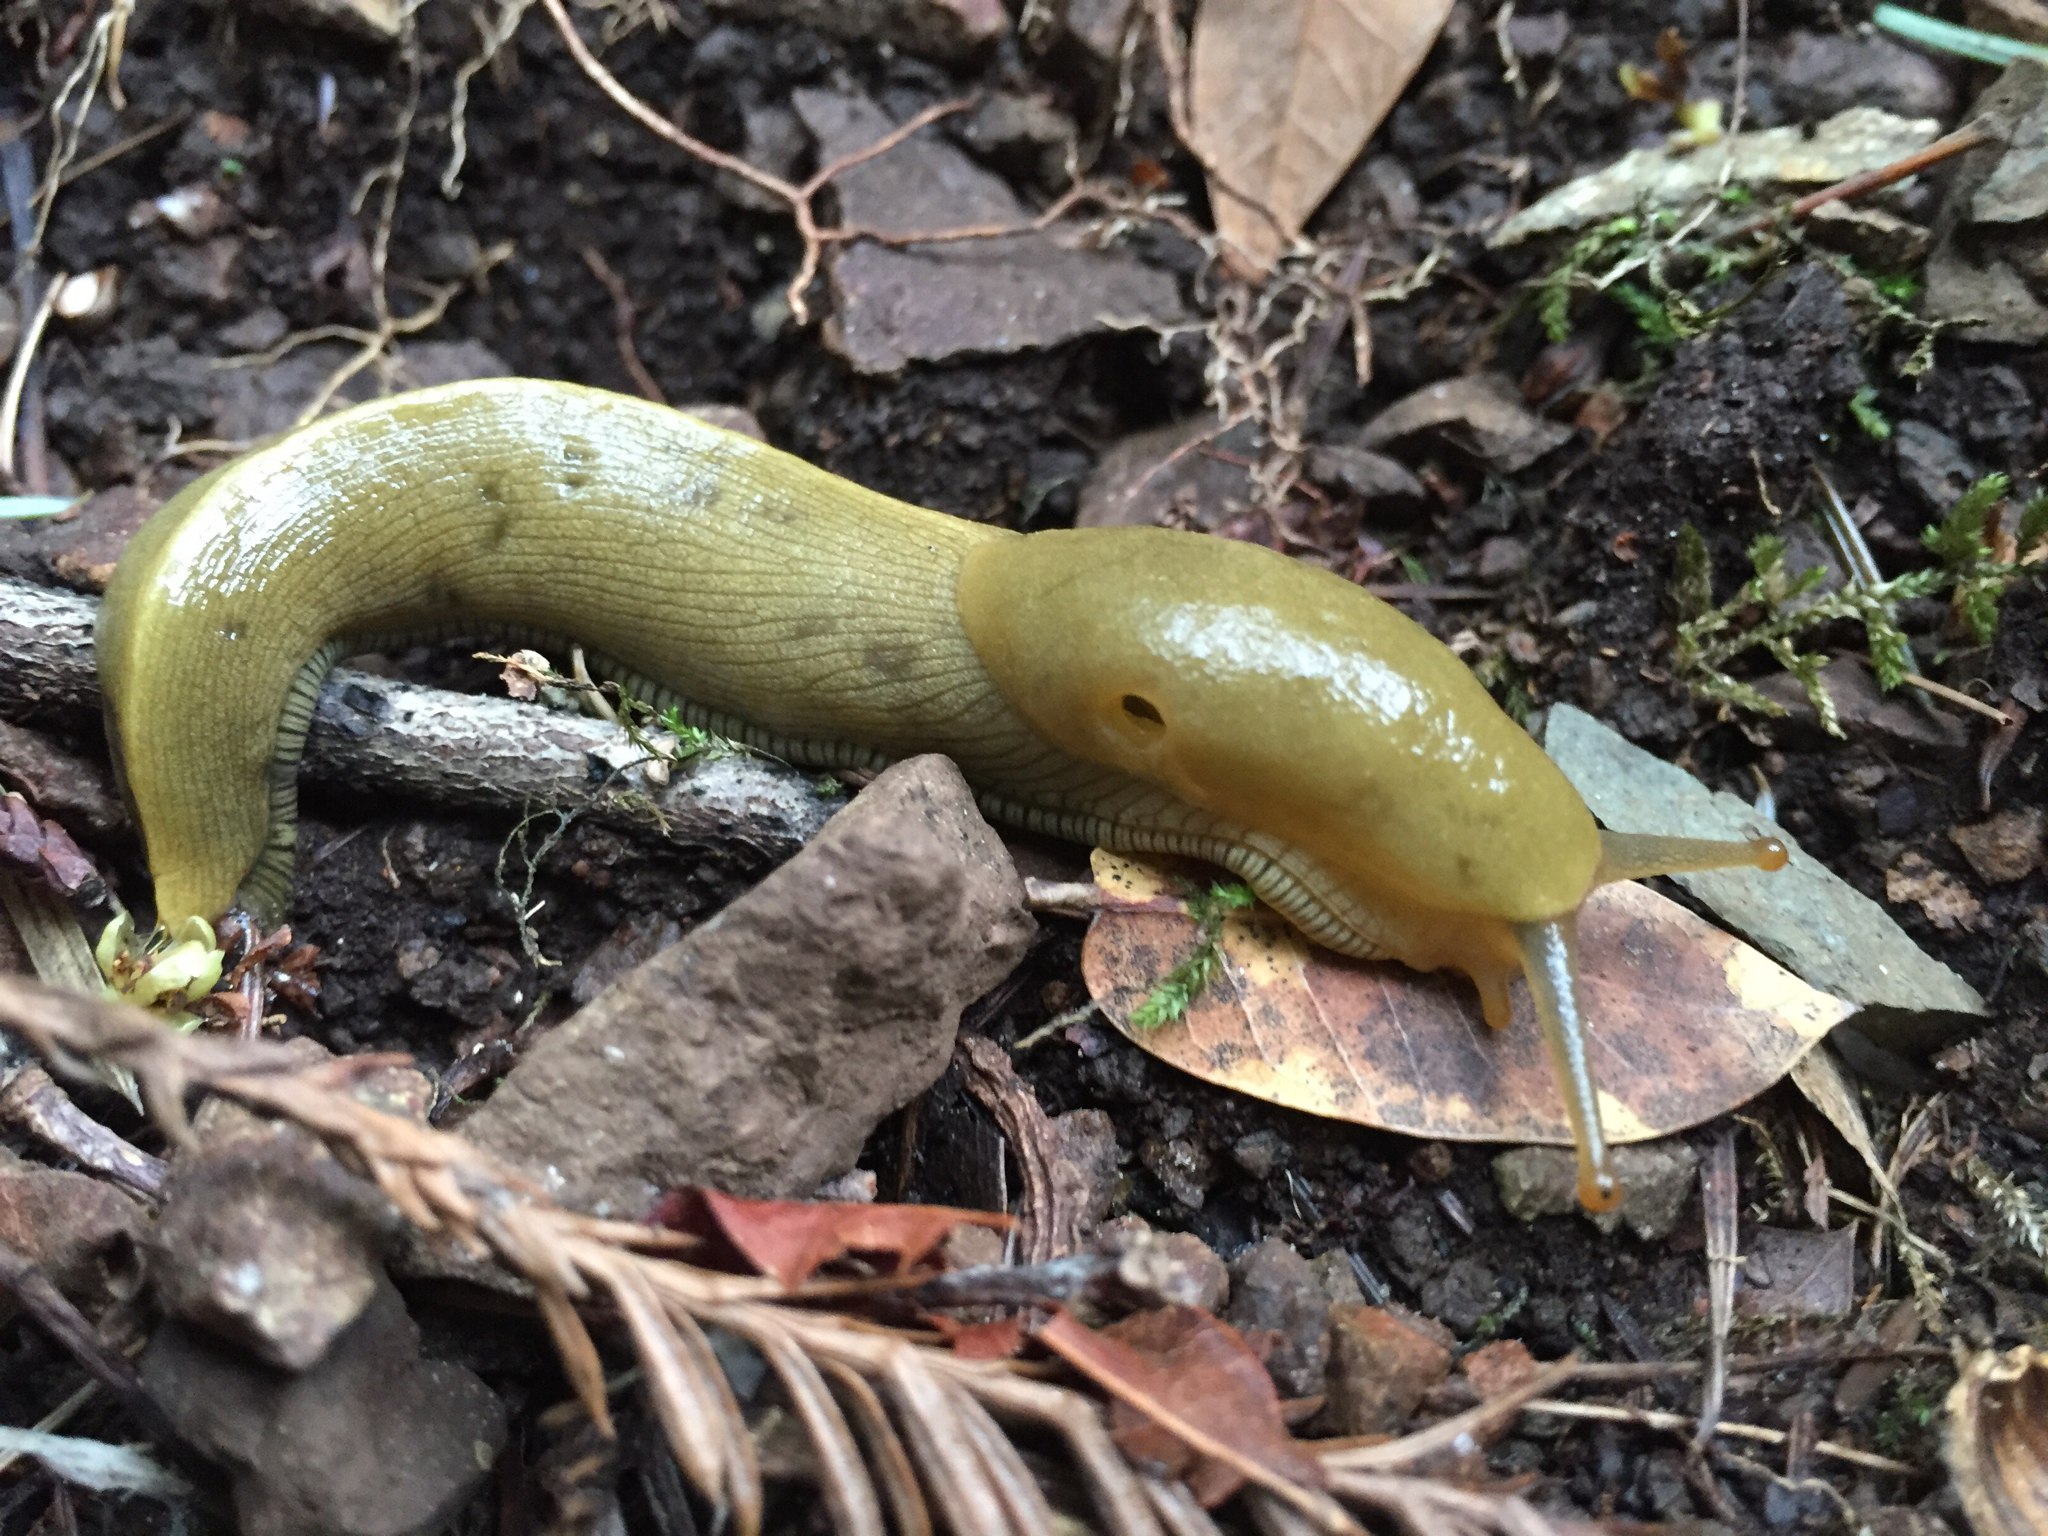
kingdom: Animalia
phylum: Mollusca
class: Gastropoda
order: Stylommatophora
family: Ariolimacidae
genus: Ariolimax
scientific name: Ariolimax buttoni
